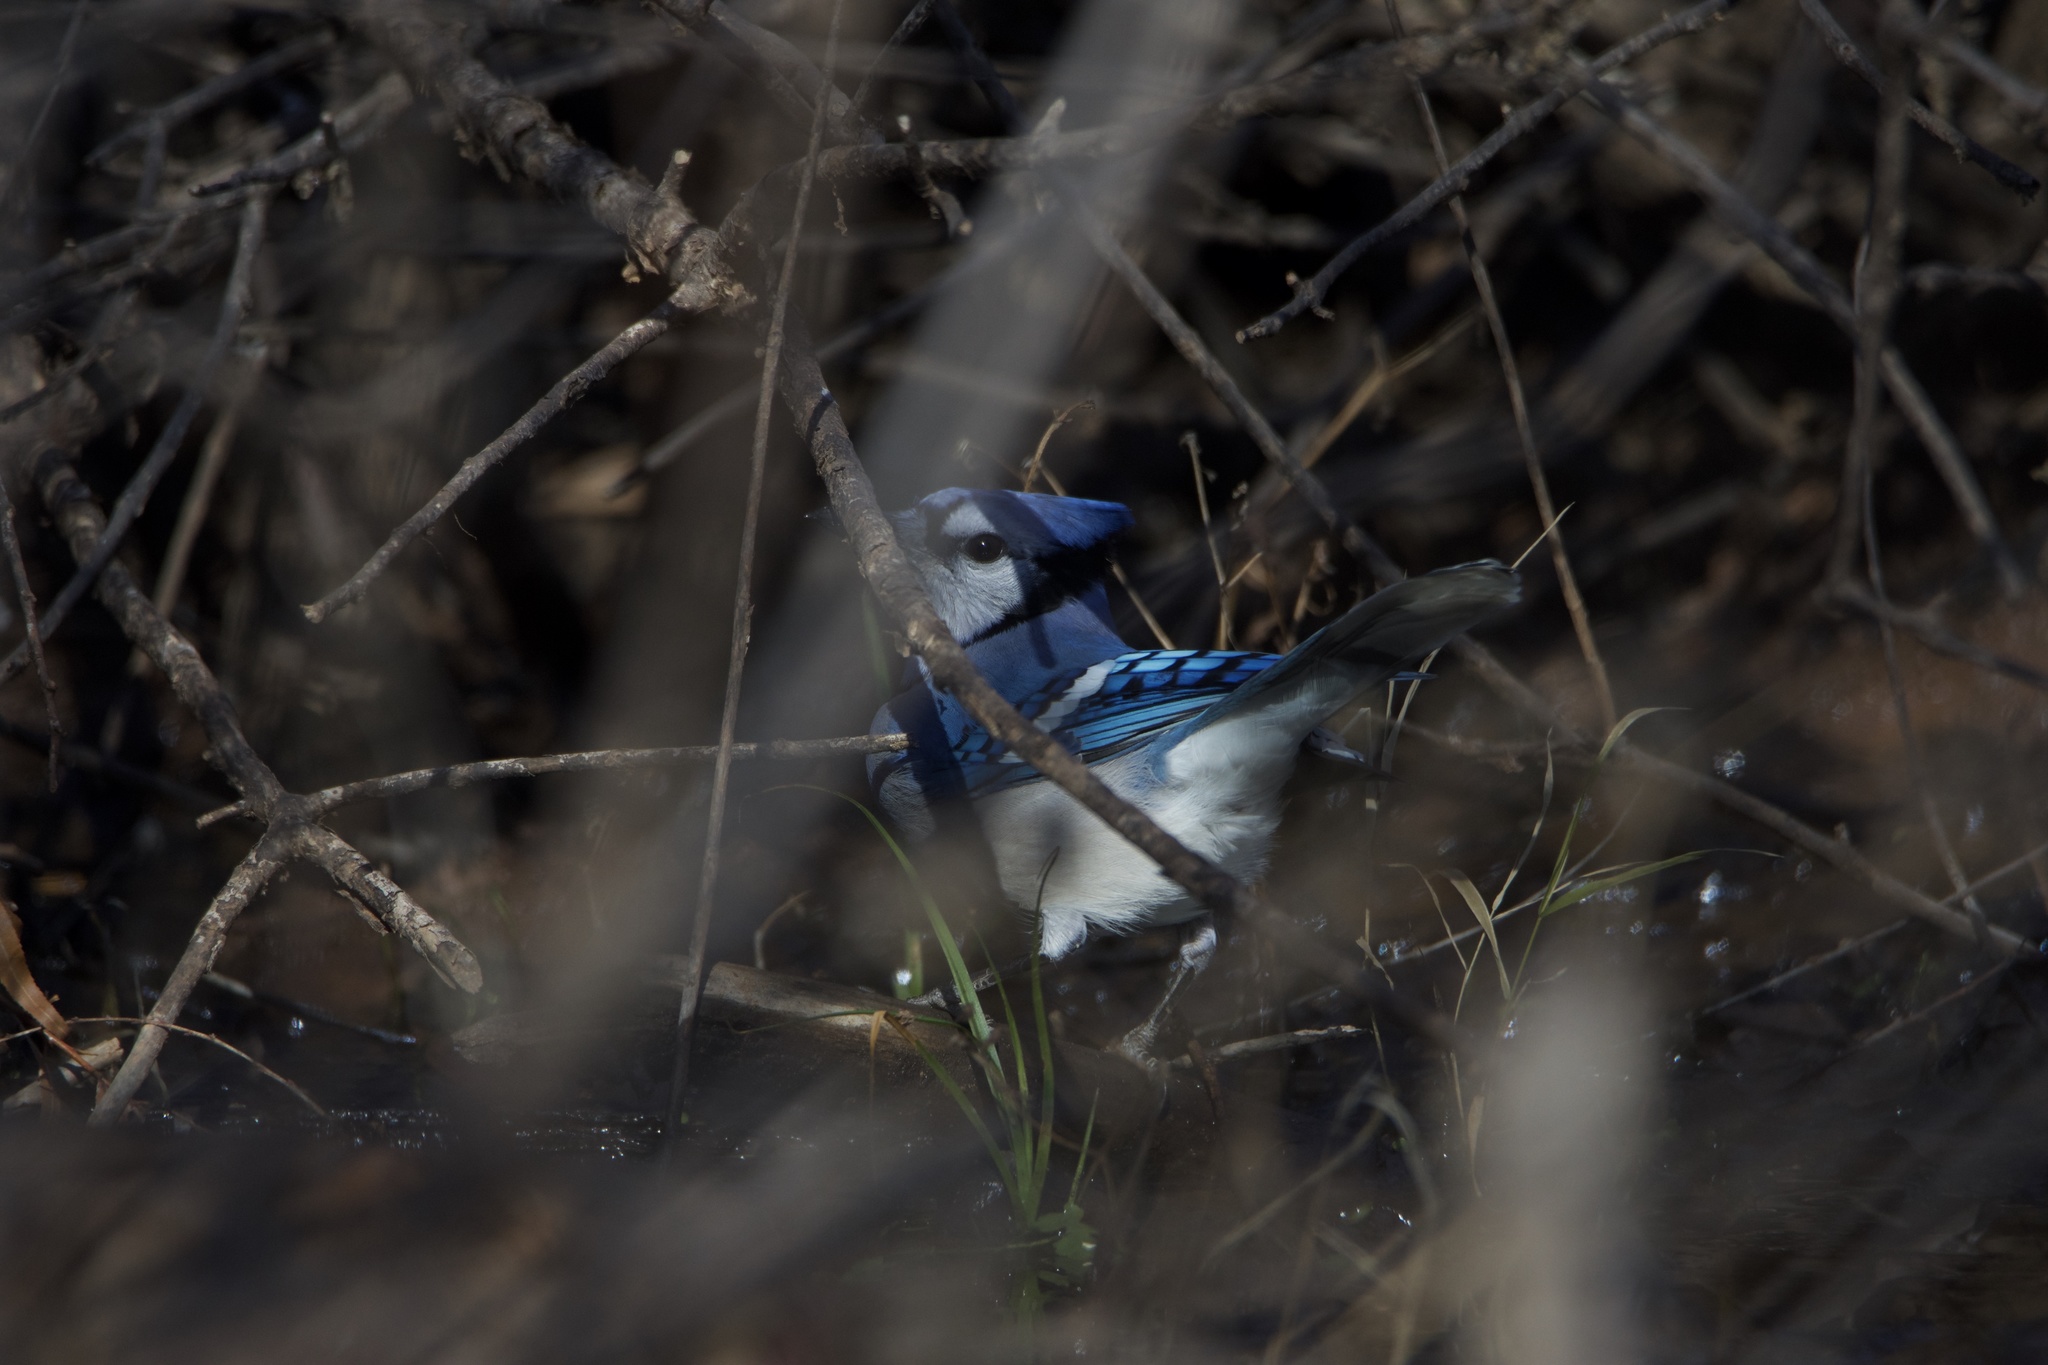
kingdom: Animalia
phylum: Chordata
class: Aves
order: Passeriformes
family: Corvidae
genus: Cyanocitta
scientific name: Cyanocitta cristata
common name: Blue jay
